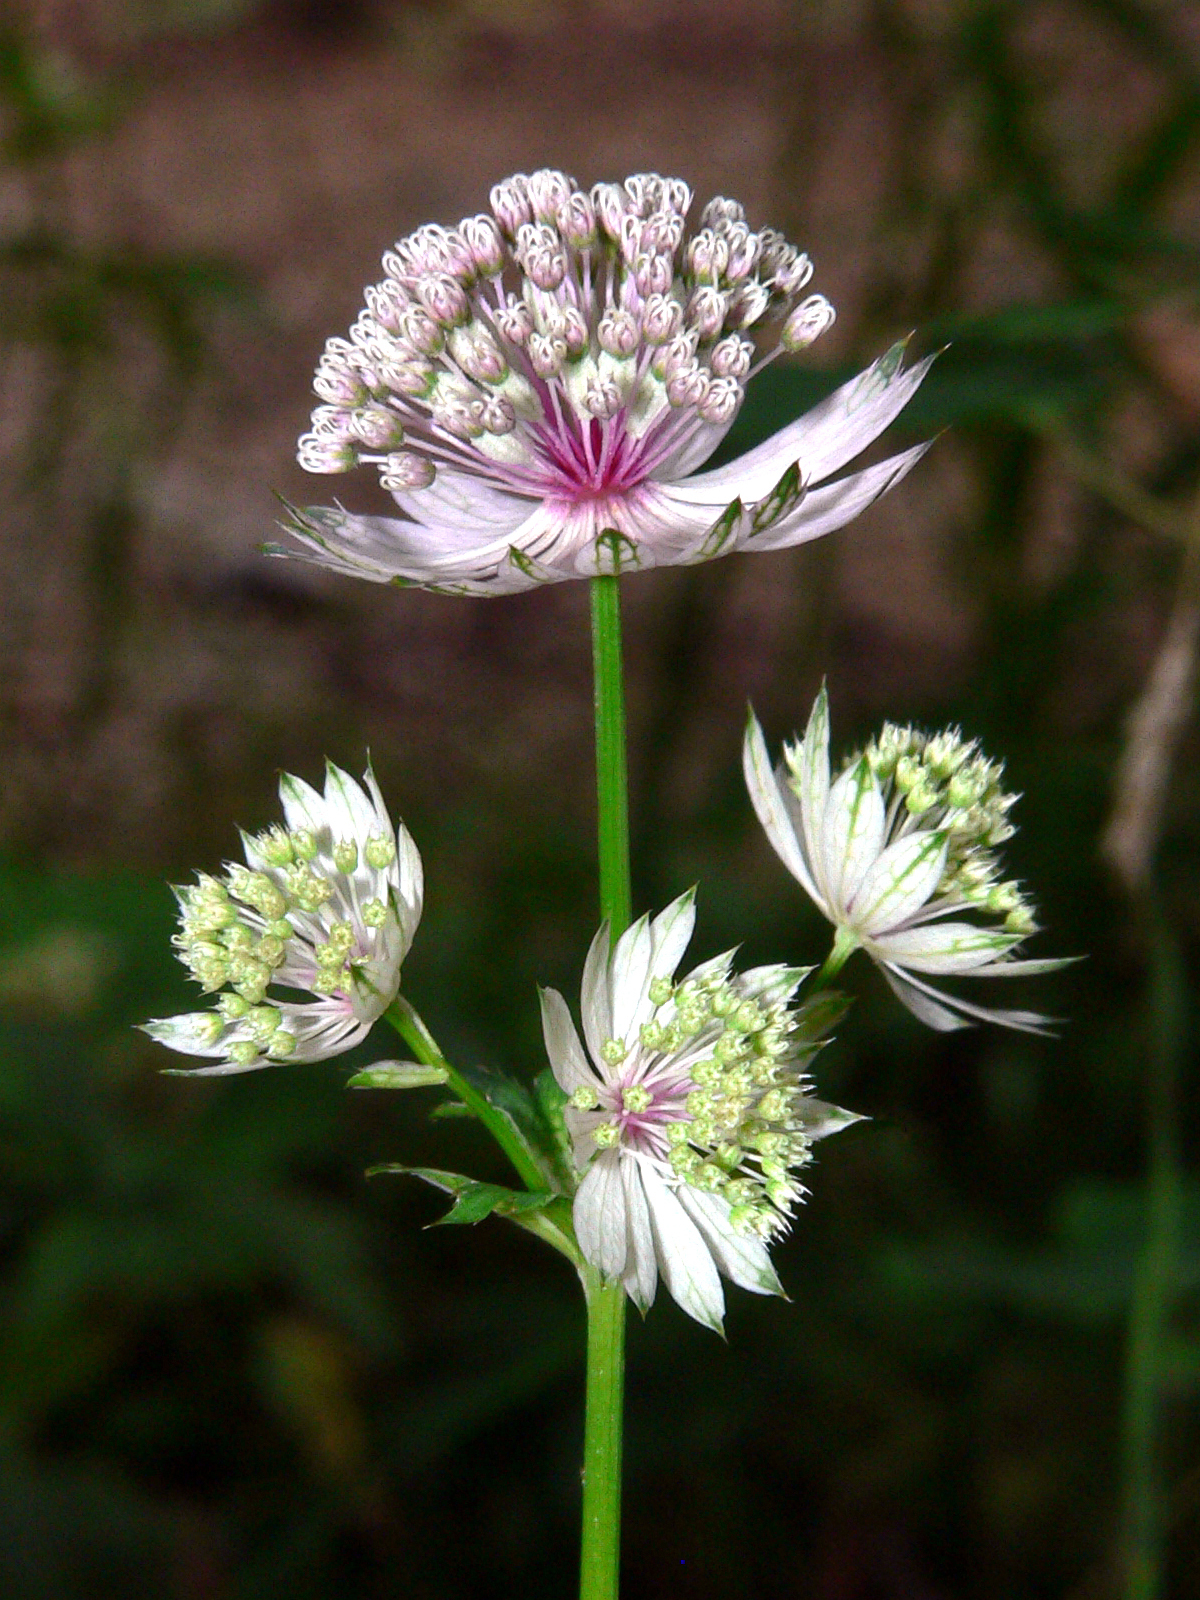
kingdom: Plantae
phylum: Tracheophyta
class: Magnoliopsida
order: Apiales
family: Apiaceae
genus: Astrantia
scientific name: Astrantia major
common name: Greater masterwort
